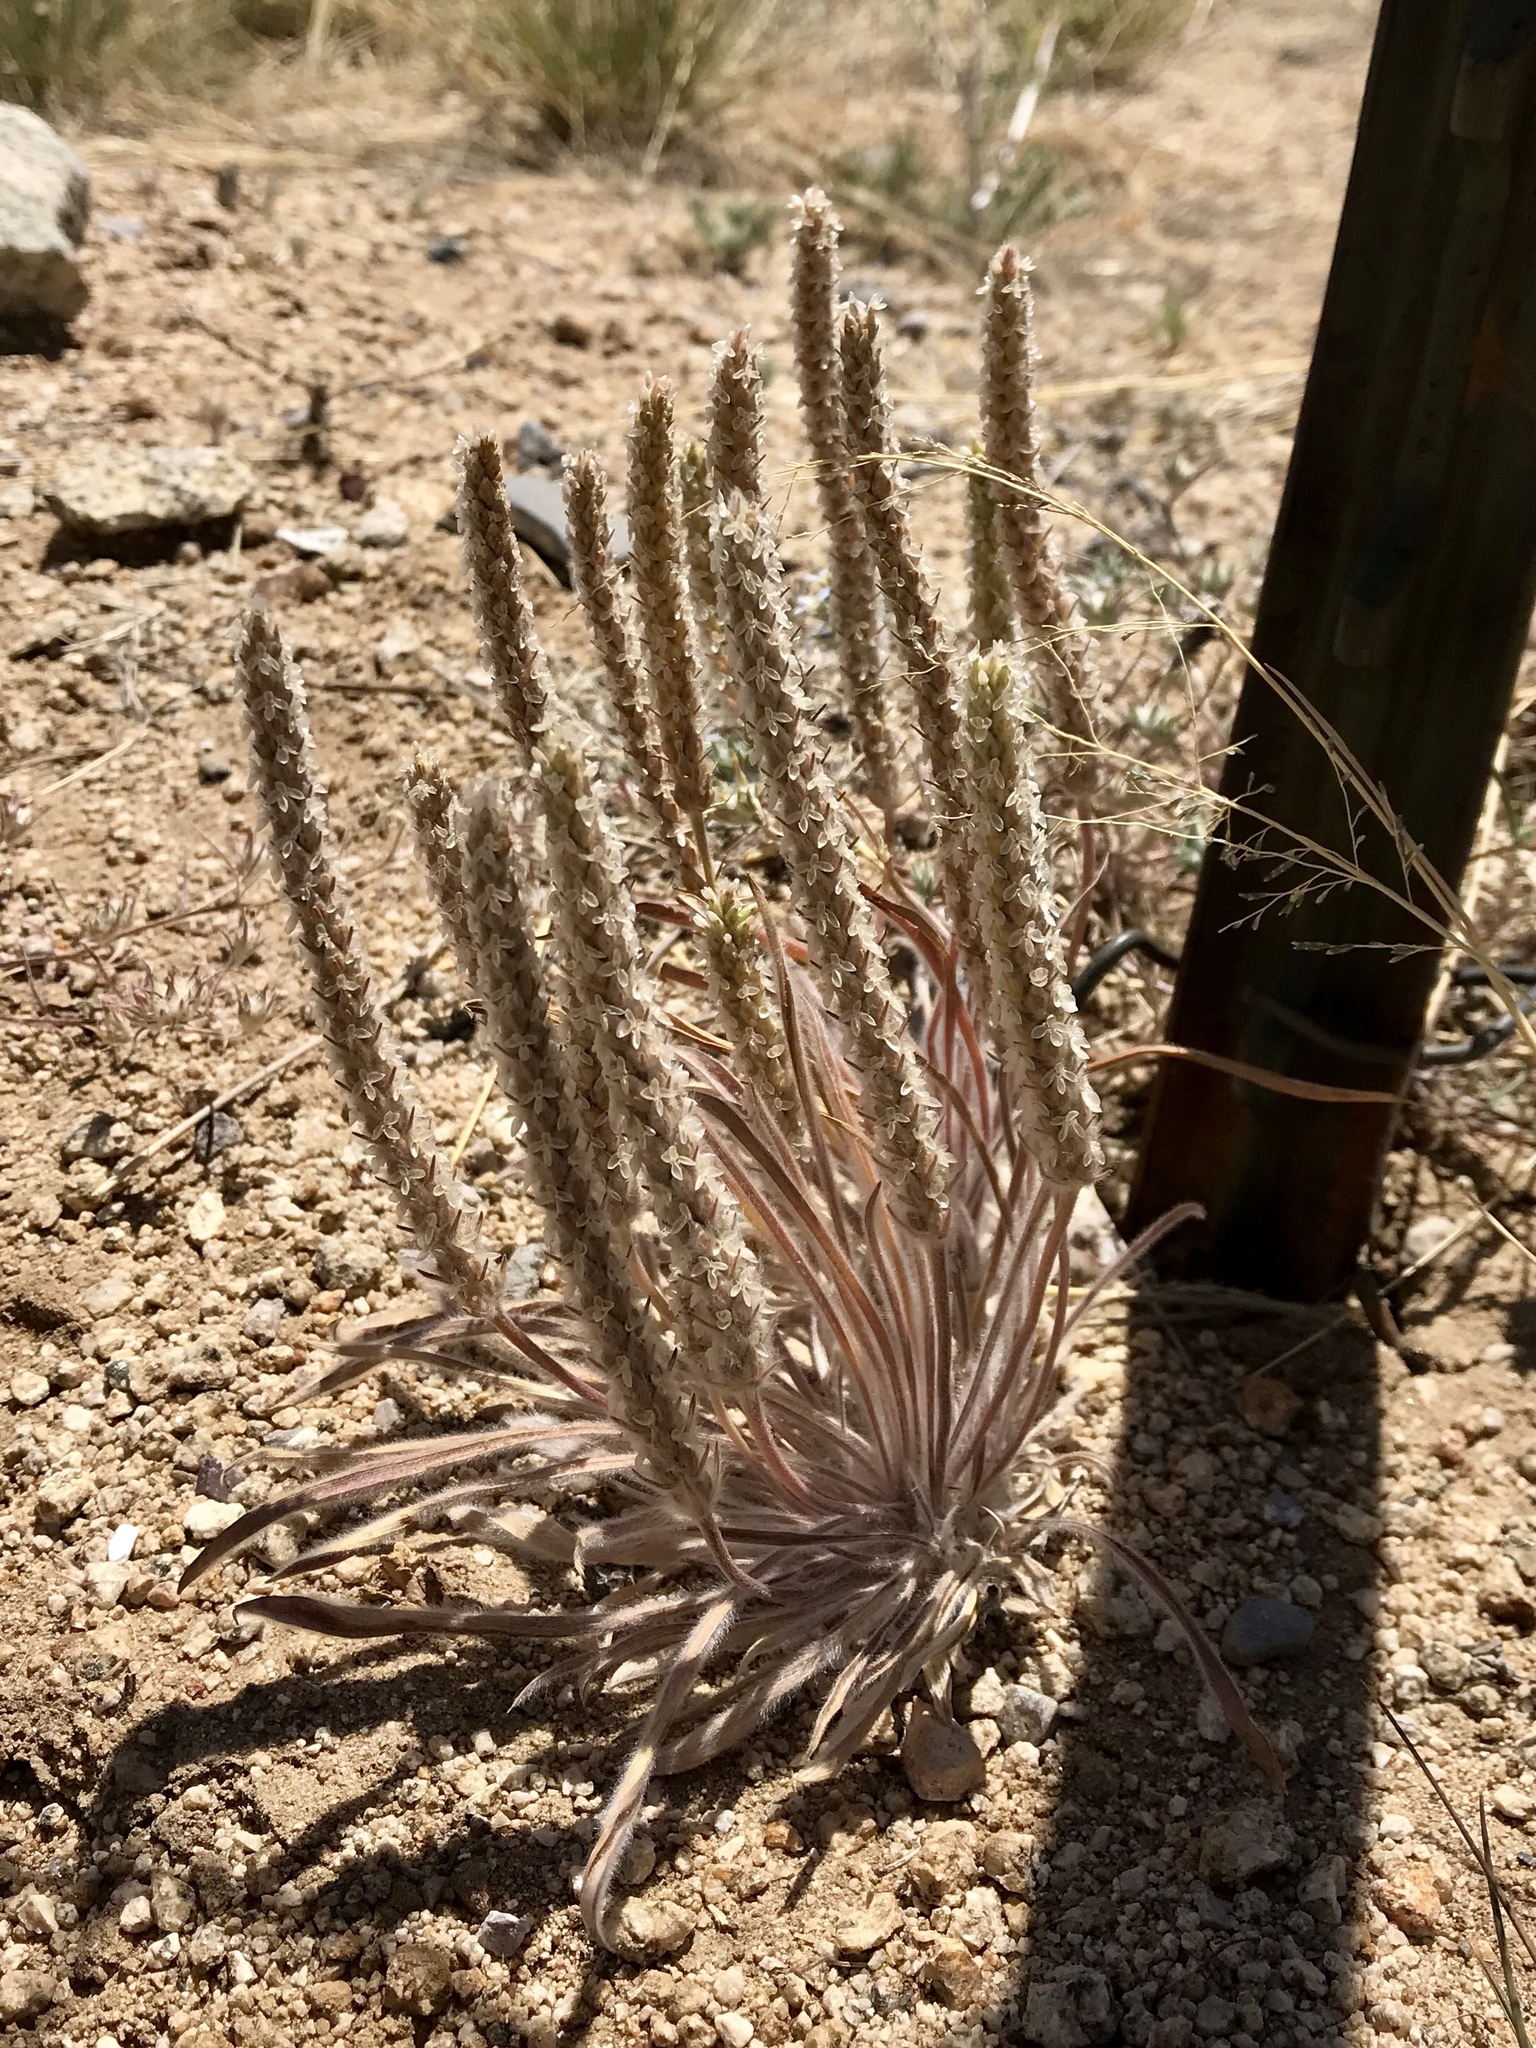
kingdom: Plantae
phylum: Tracheophyta
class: Magnoliopsida
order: Lamiales
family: Plantaginaceae
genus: Plantago
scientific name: Plantago patagonica
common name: Patagonia indian-wheat
